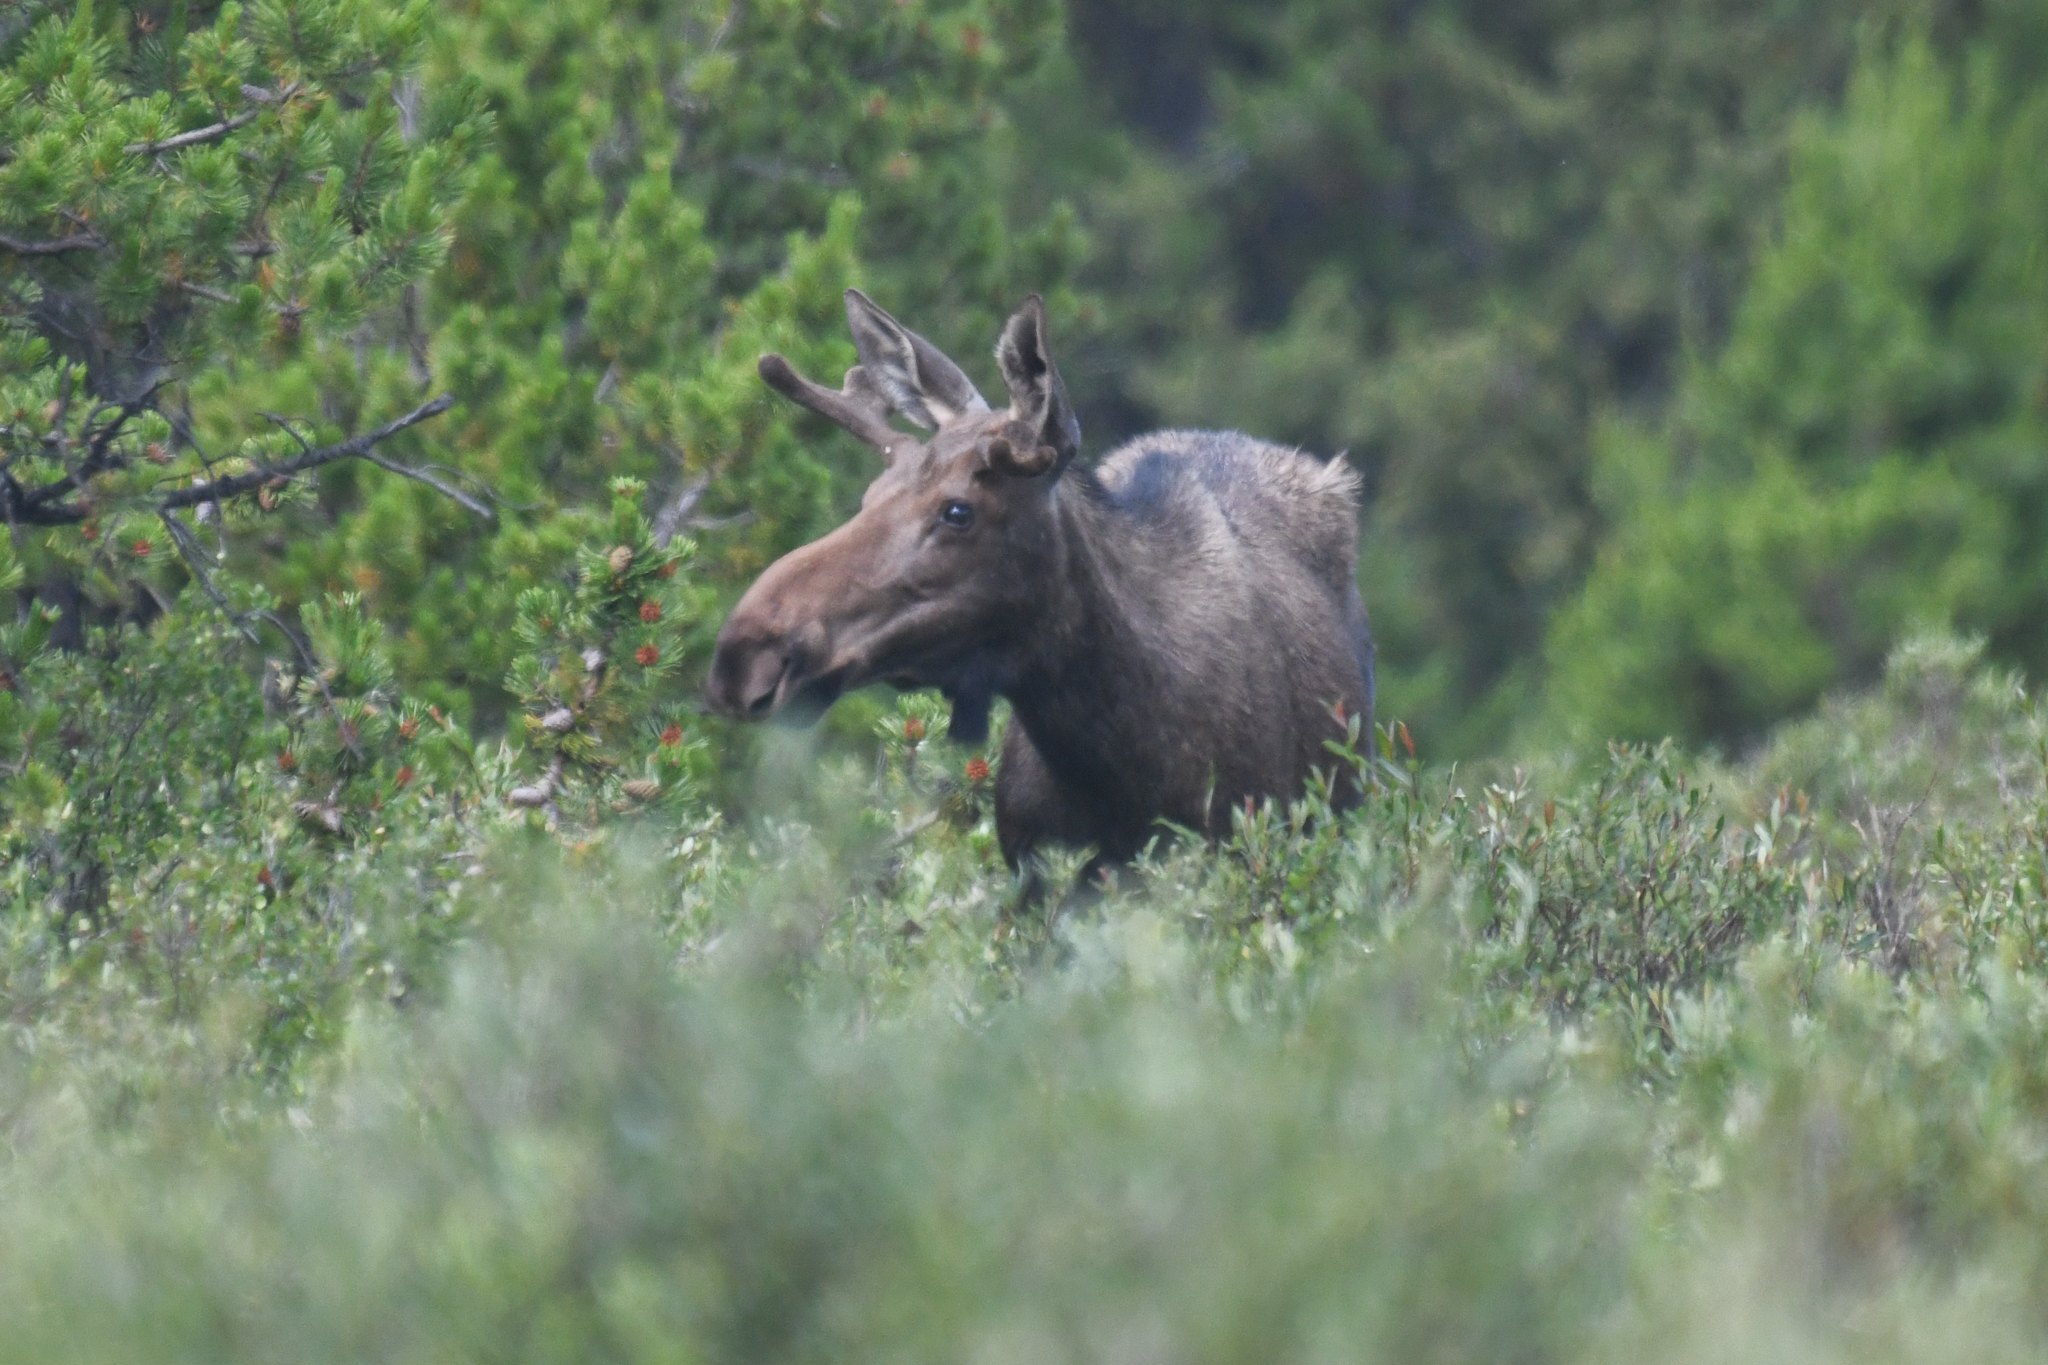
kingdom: Animalia
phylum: Chordata
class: Mammalia
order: Artiodactyla
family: Cervidae
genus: Alces
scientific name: Alces alces
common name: Moose
